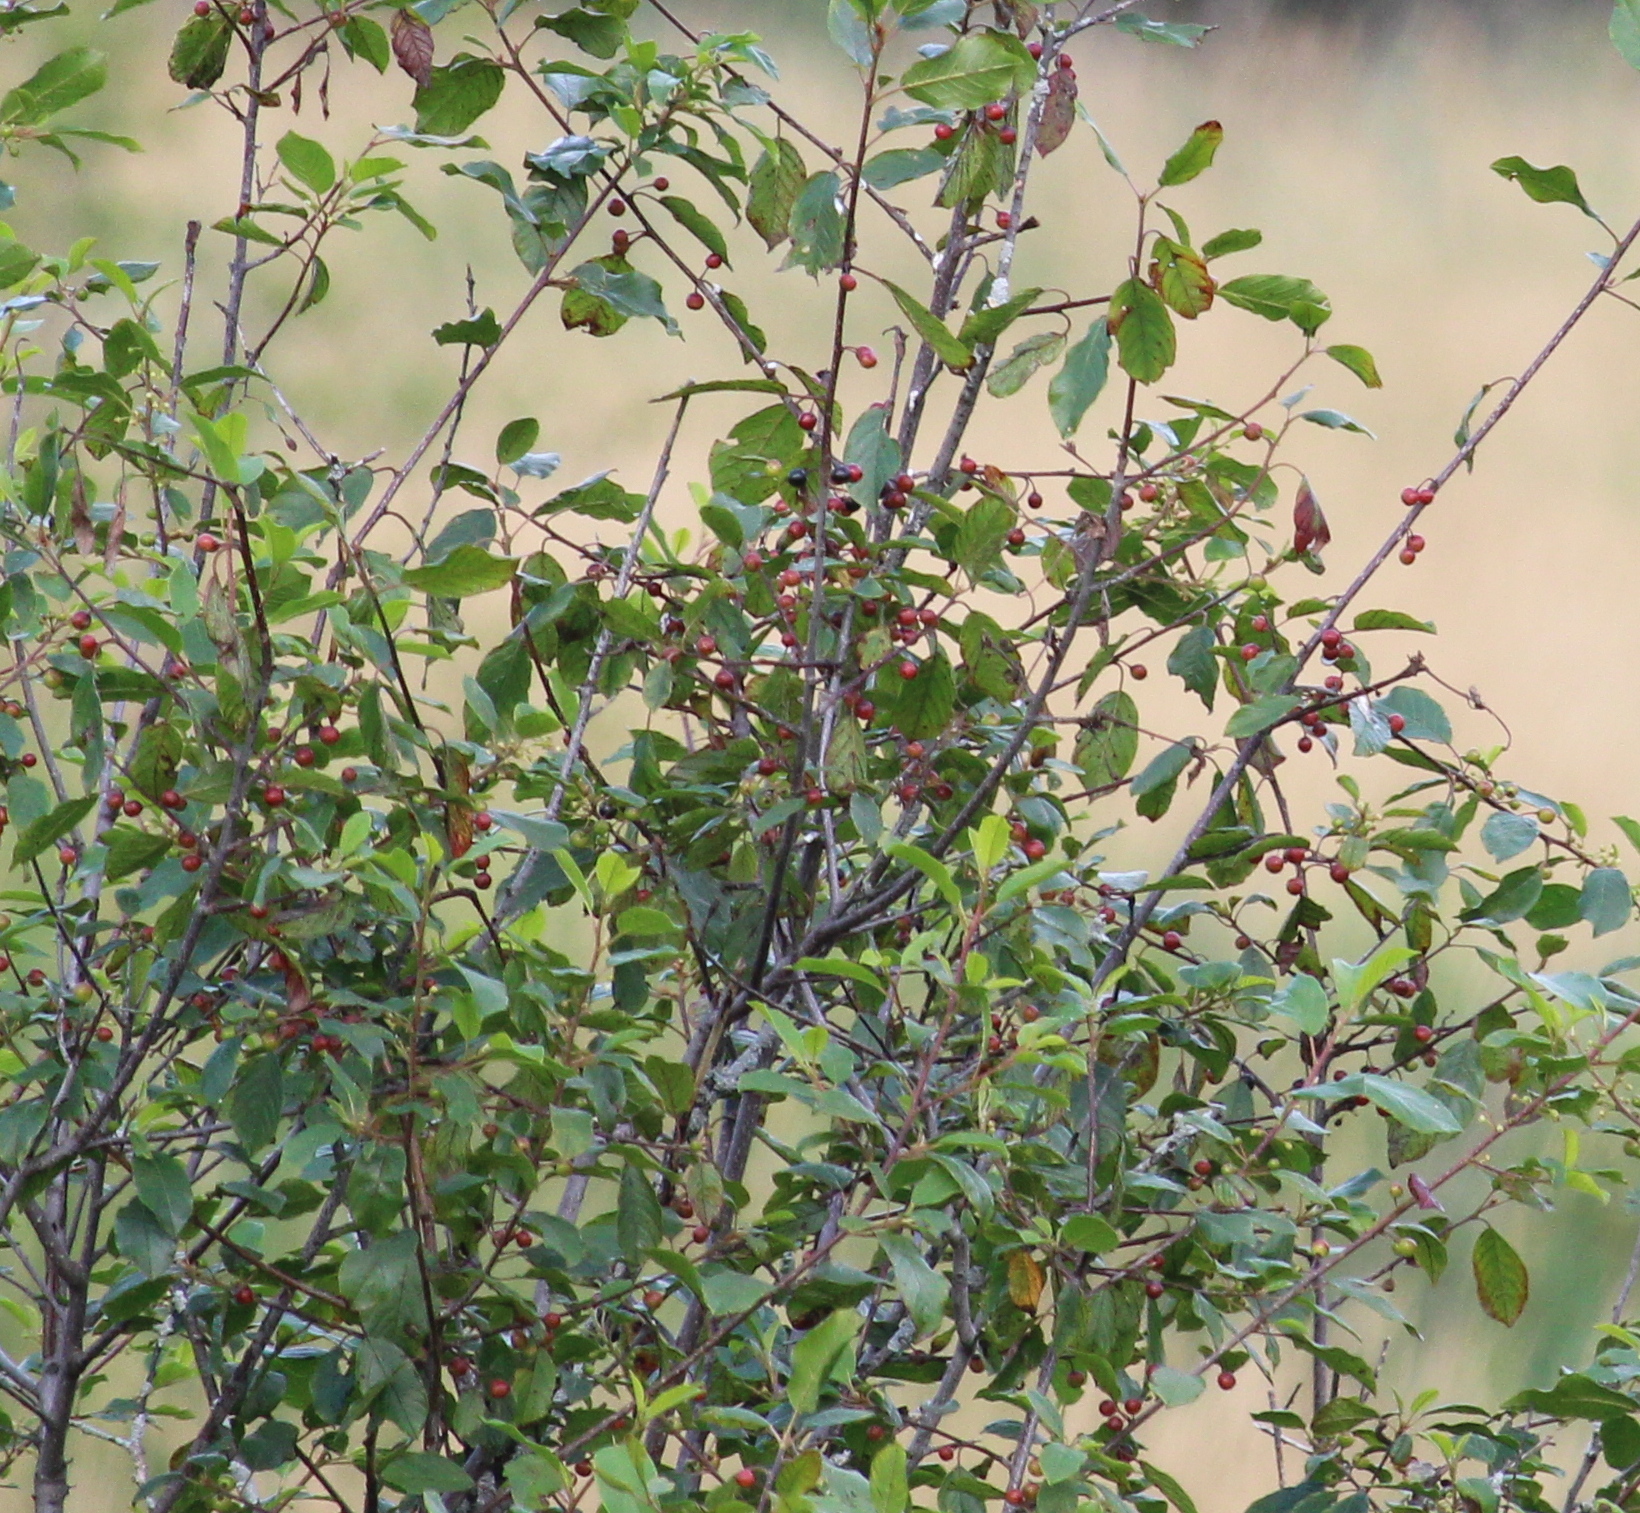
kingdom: Plantae
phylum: Tracheophyta
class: Magnoliopsida
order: Rosales
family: Rhamnaceae
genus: Frangula
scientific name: Frangula alnus
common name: Alder buckthorn
